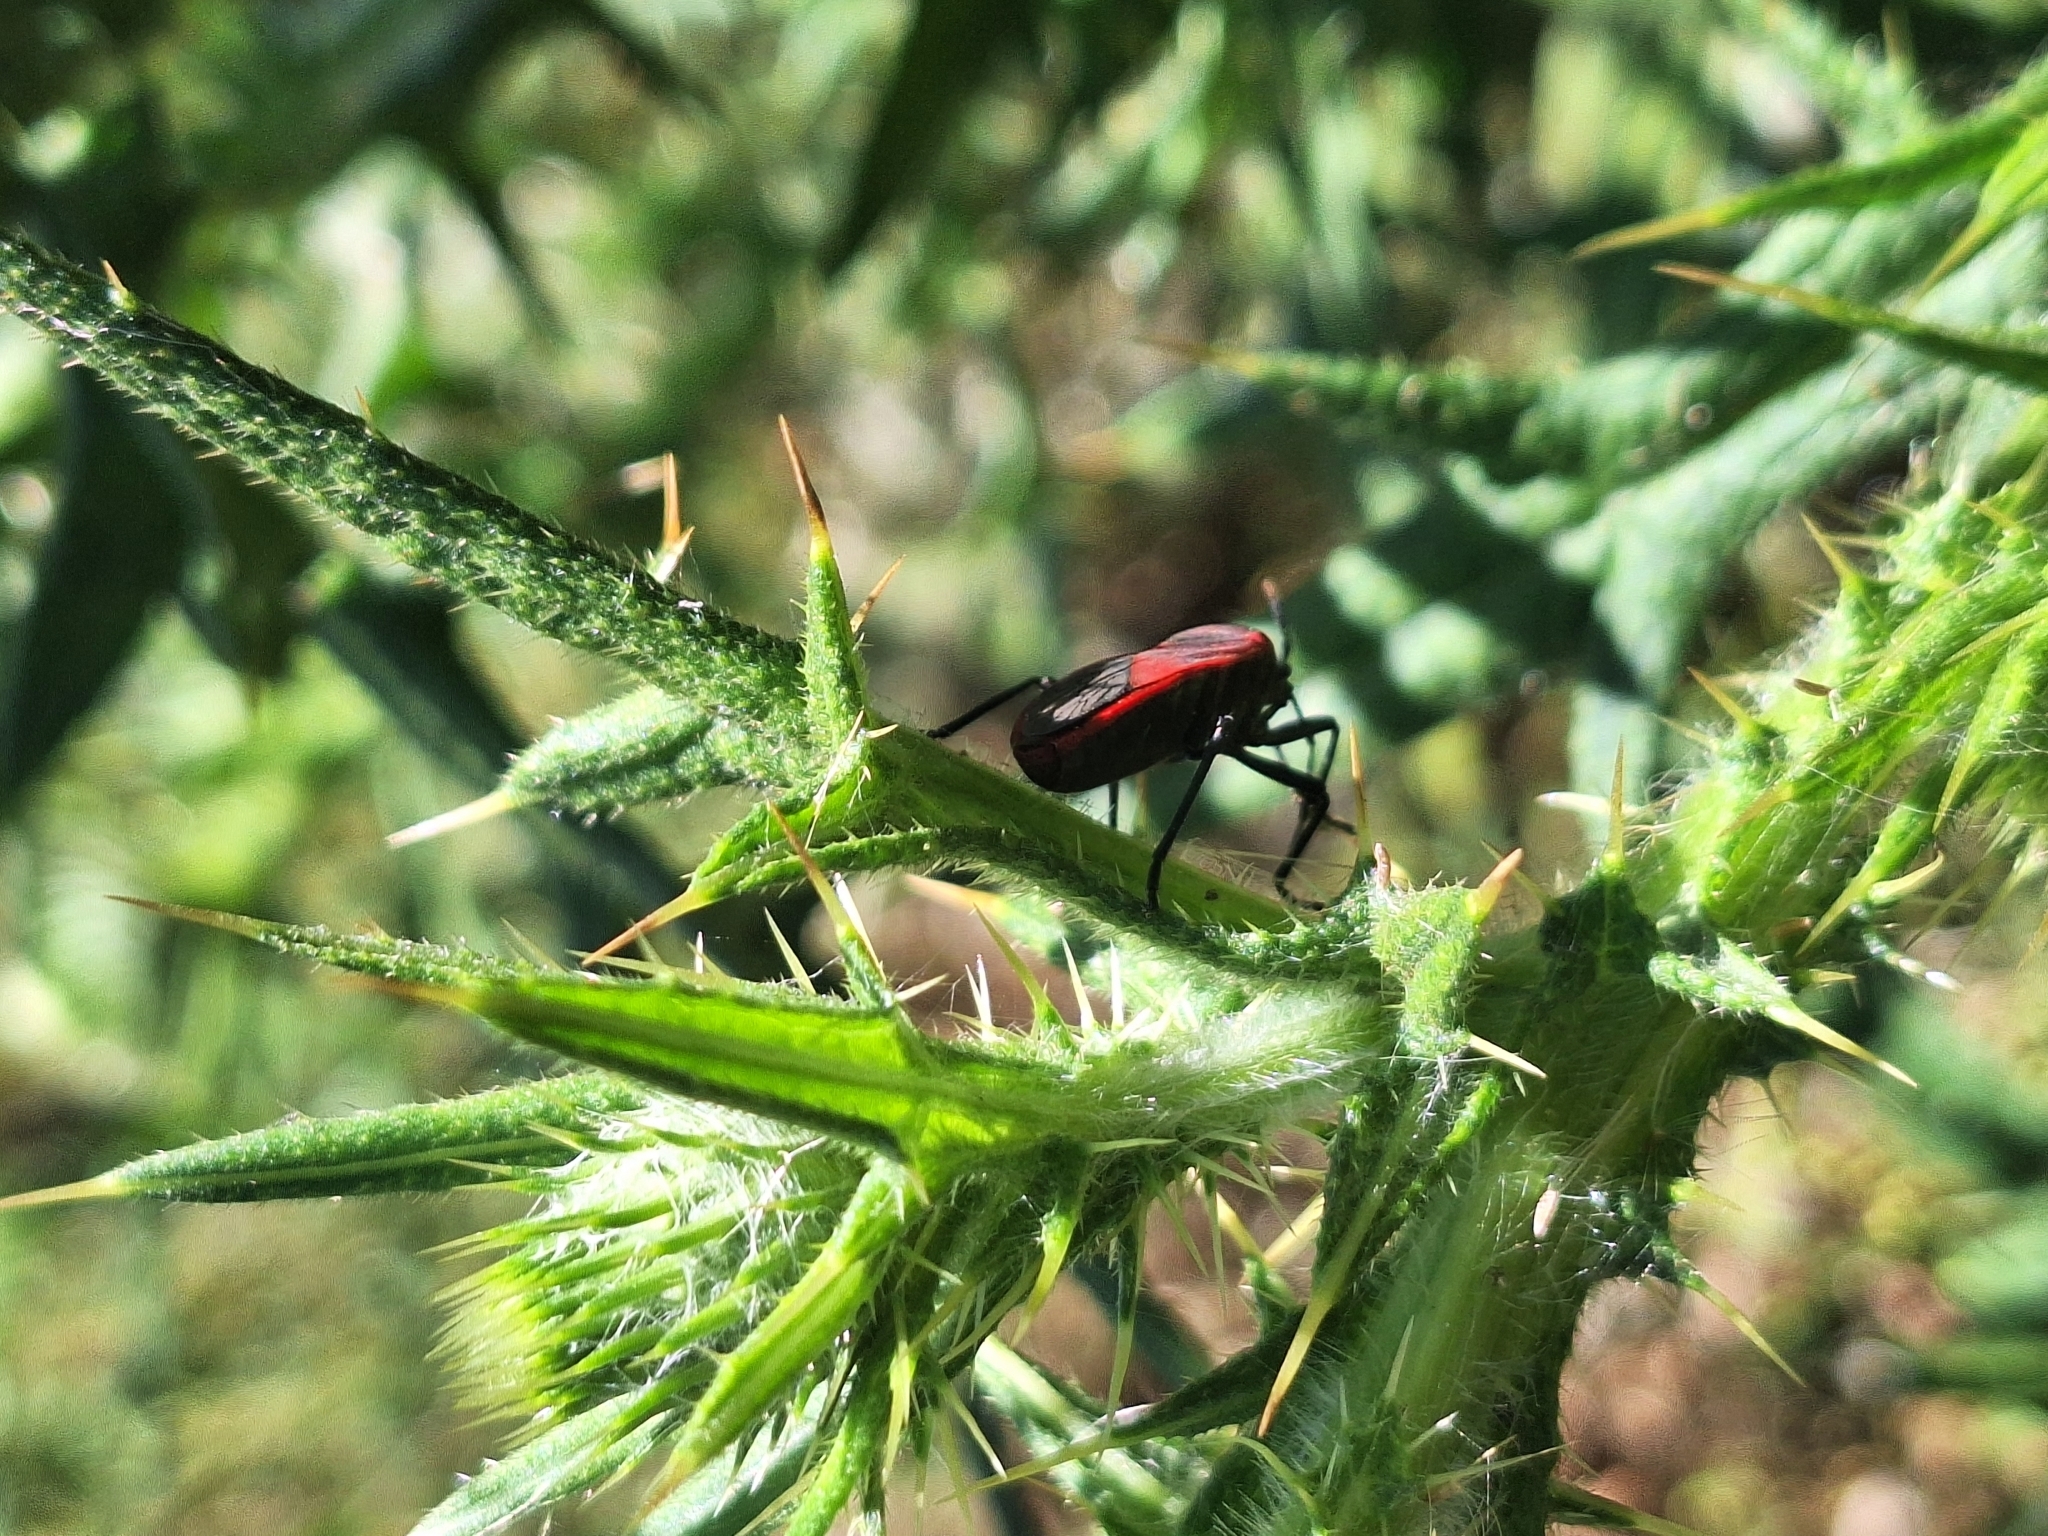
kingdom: Animalia
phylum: Arthropoda
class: Insecta
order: Hemiptera
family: Largidae
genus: Largus
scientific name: Largus rufipennis
